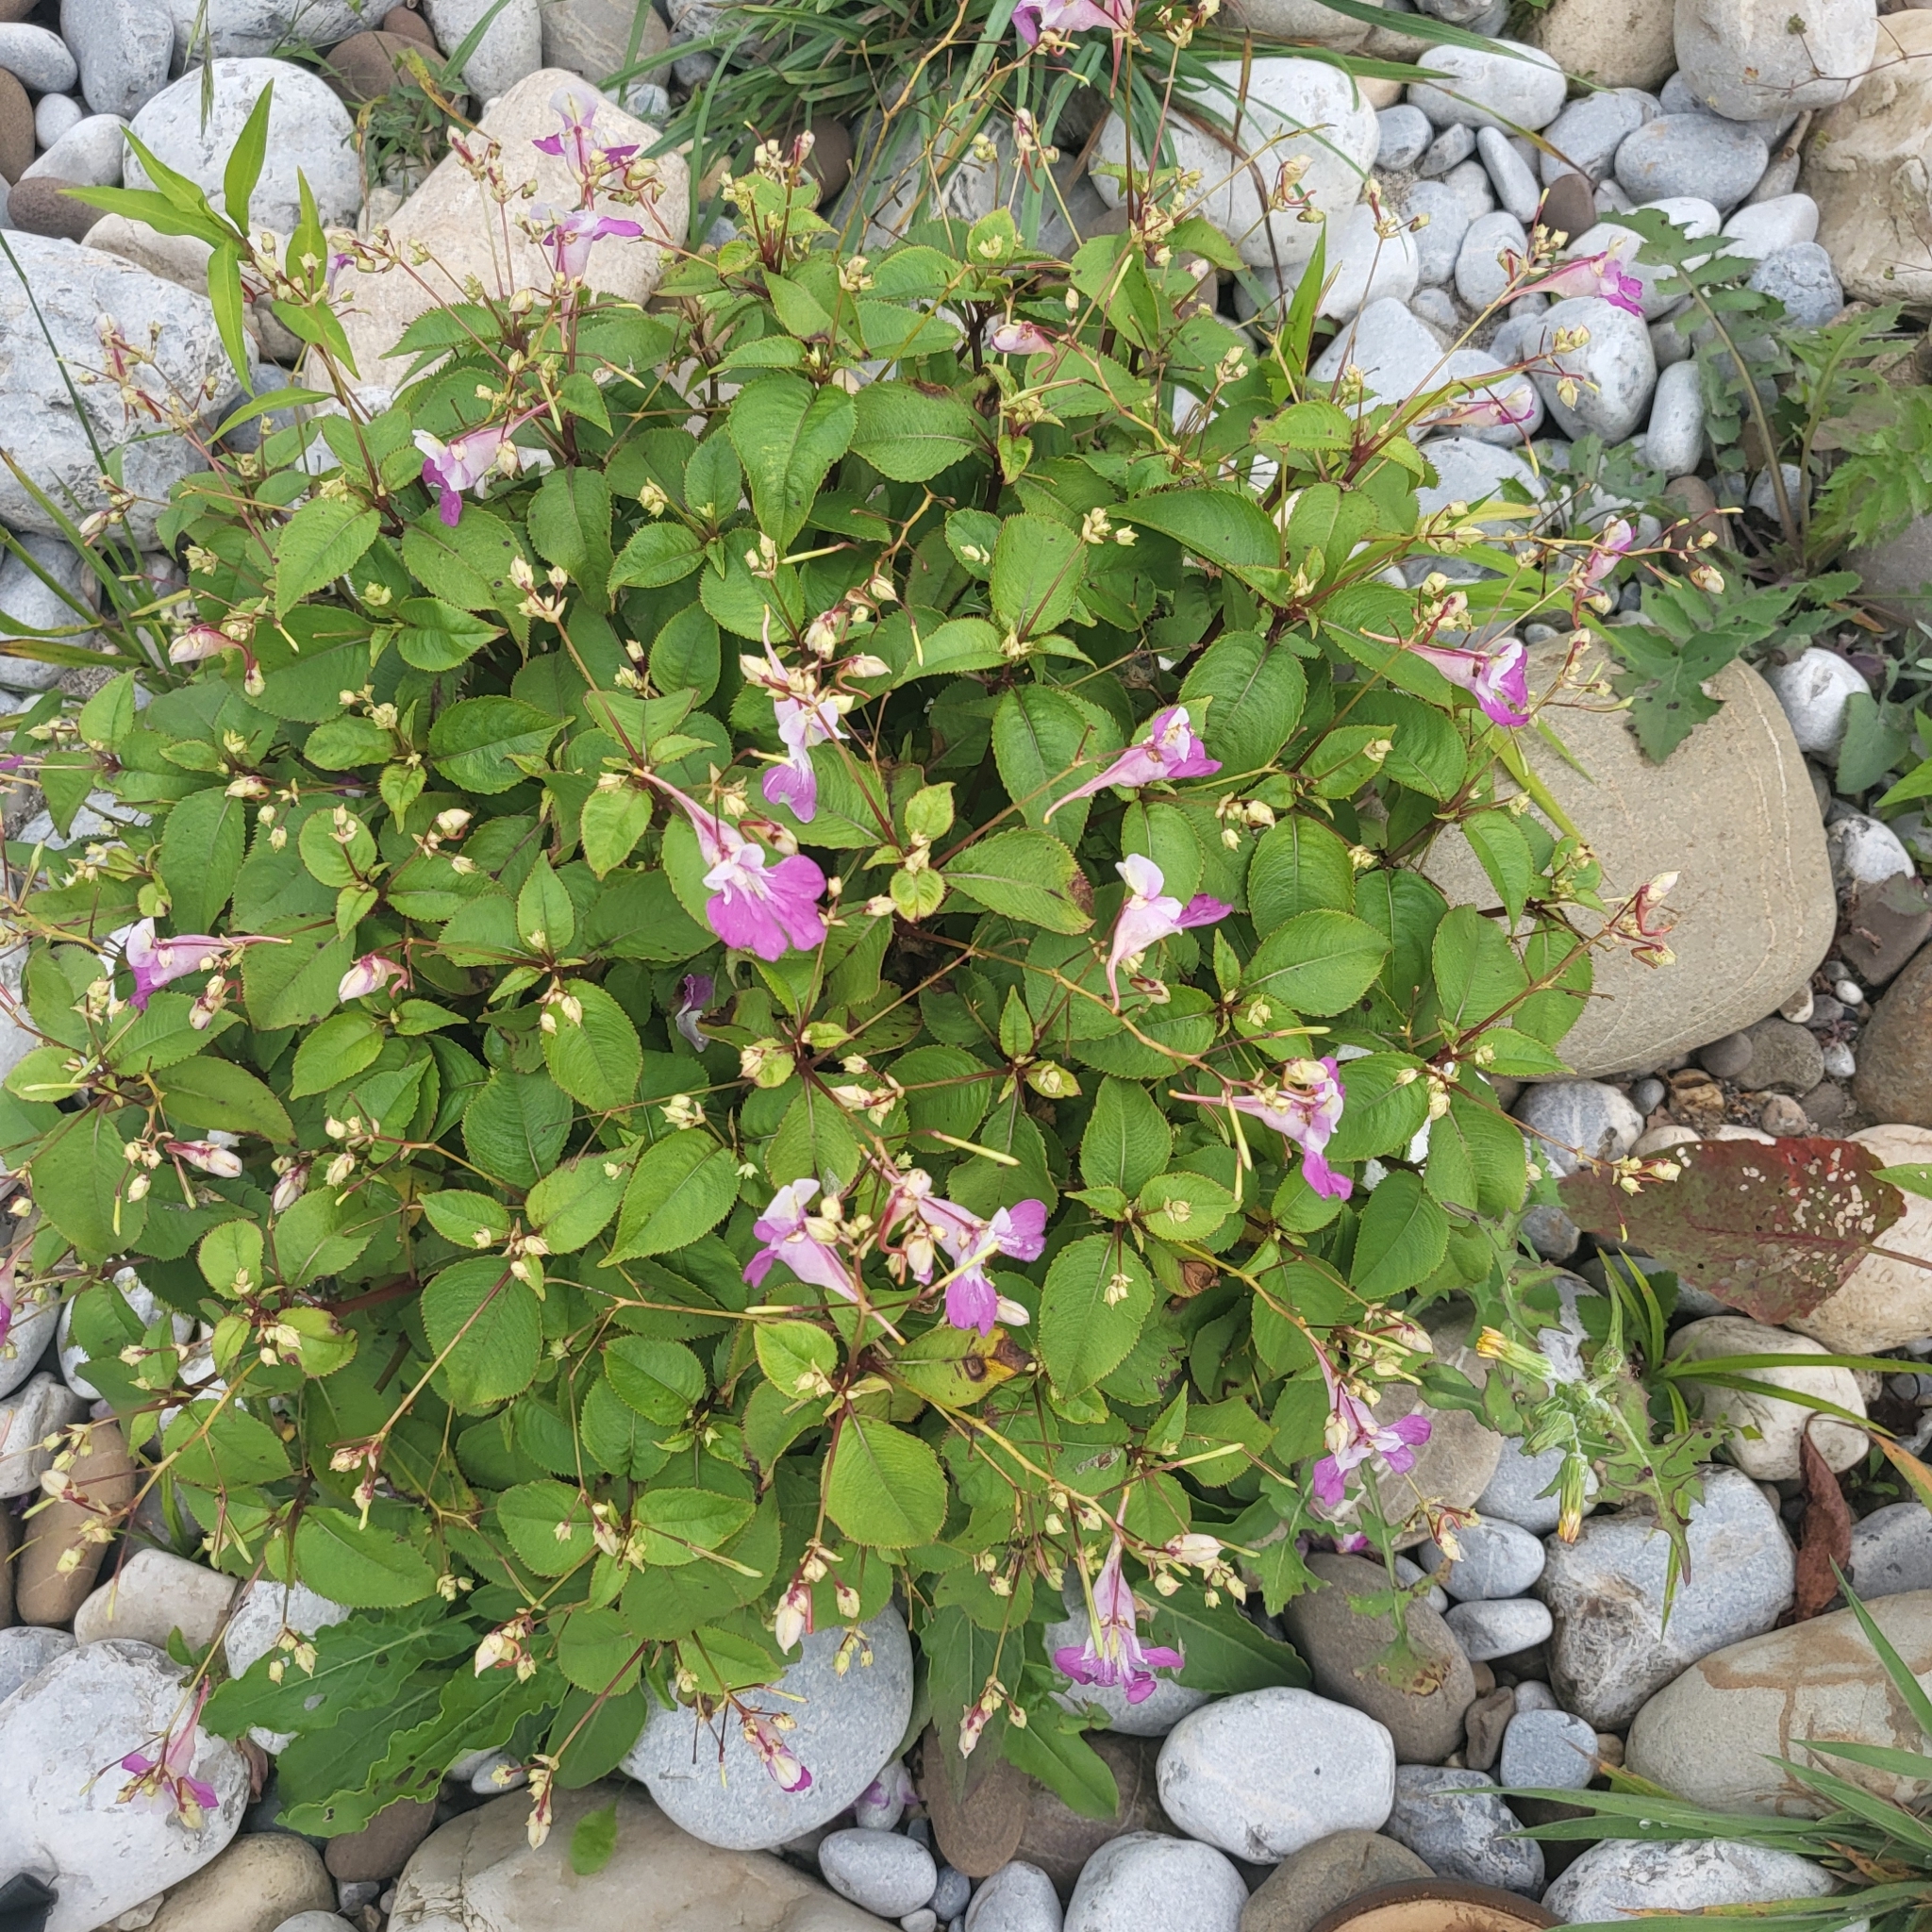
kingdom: Plantae
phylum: Tracheophyta
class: Magnoliopsida
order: Ericales
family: Balsaminaceae
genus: Impatiens
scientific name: Impatiens balfourii
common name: Balfour's touch-me-not
